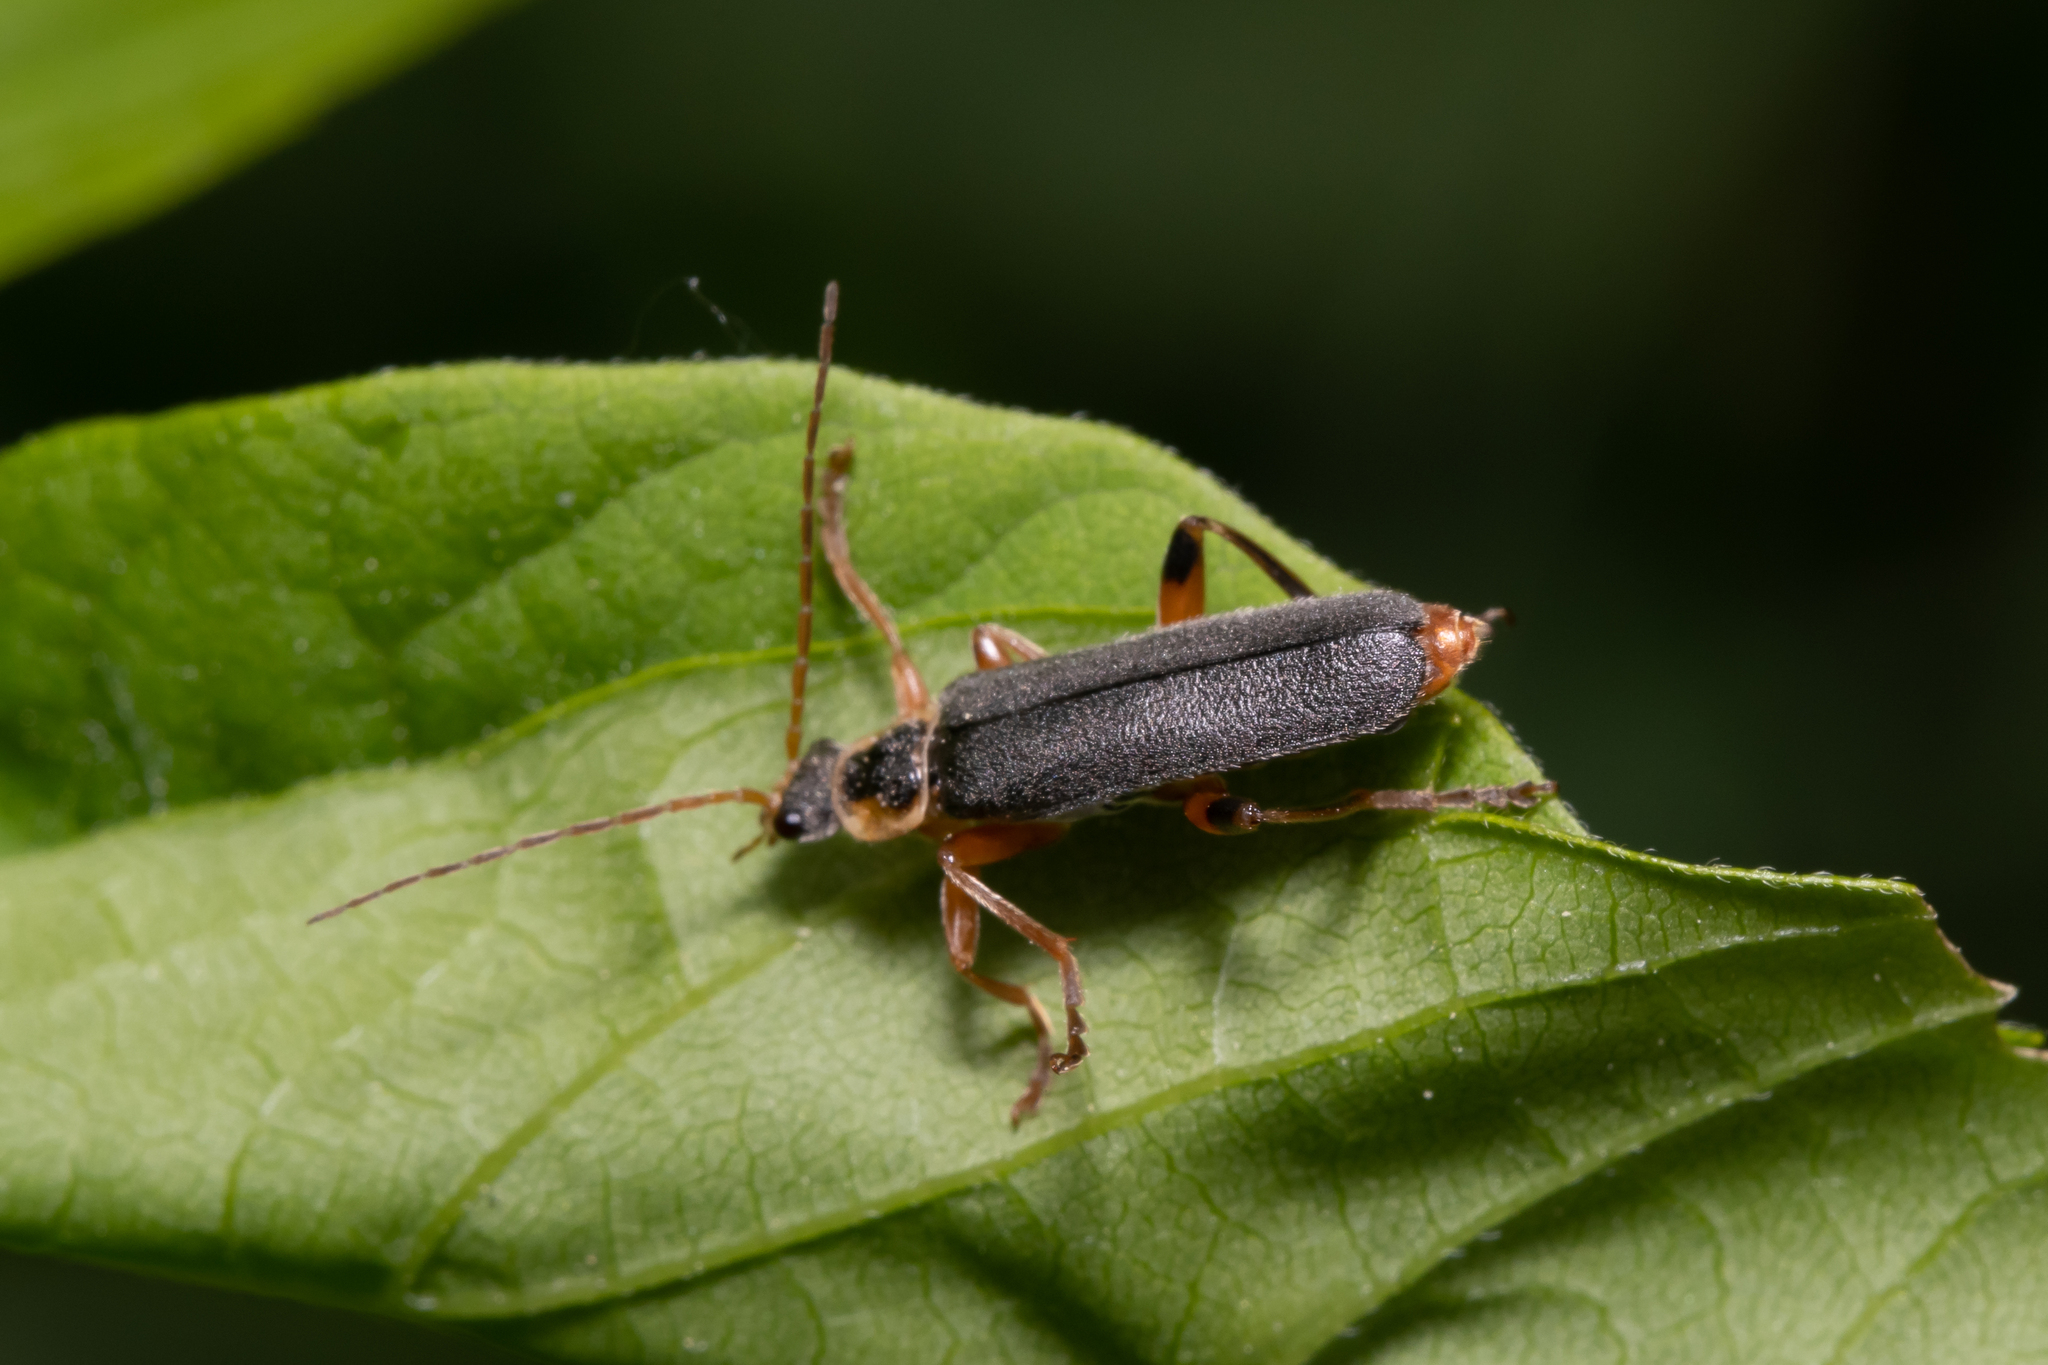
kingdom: Animalia
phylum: Arthropoda
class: Insecta
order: Coleoptera
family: Cantharidae
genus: Cantharis
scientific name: Cantharis nigricans
